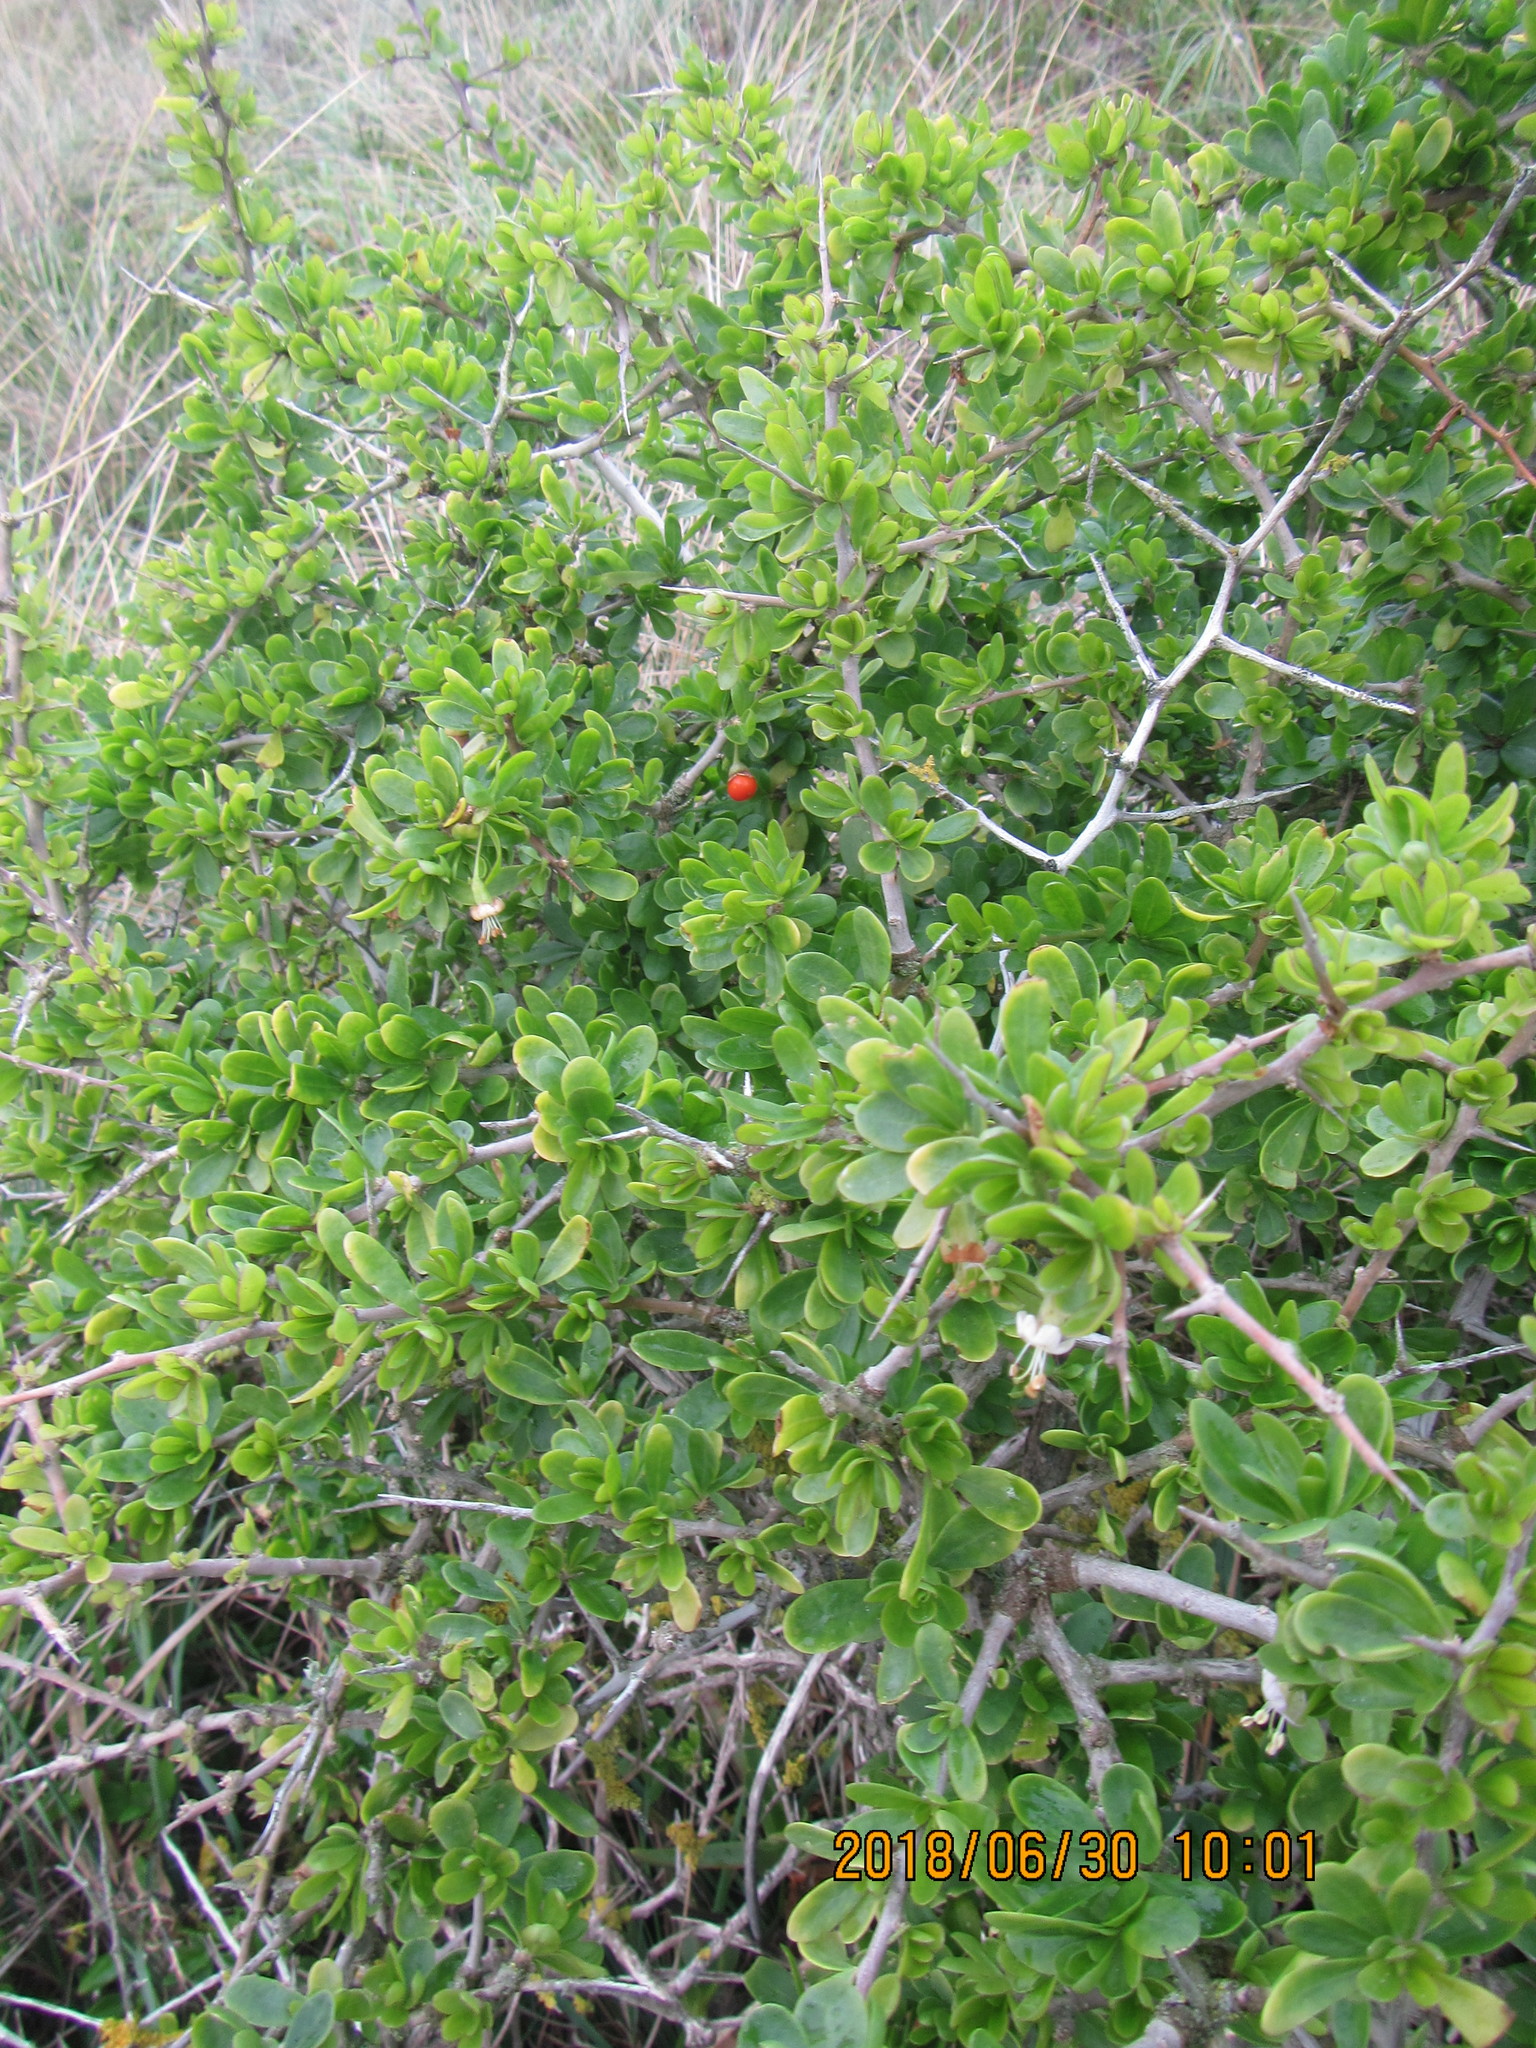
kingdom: Plantae
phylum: Tracheophyta
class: Magnoliopsida
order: Solanales
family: Solanaceae
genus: Lycium
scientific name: Lycium ferocissimum
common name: African boxthorn
